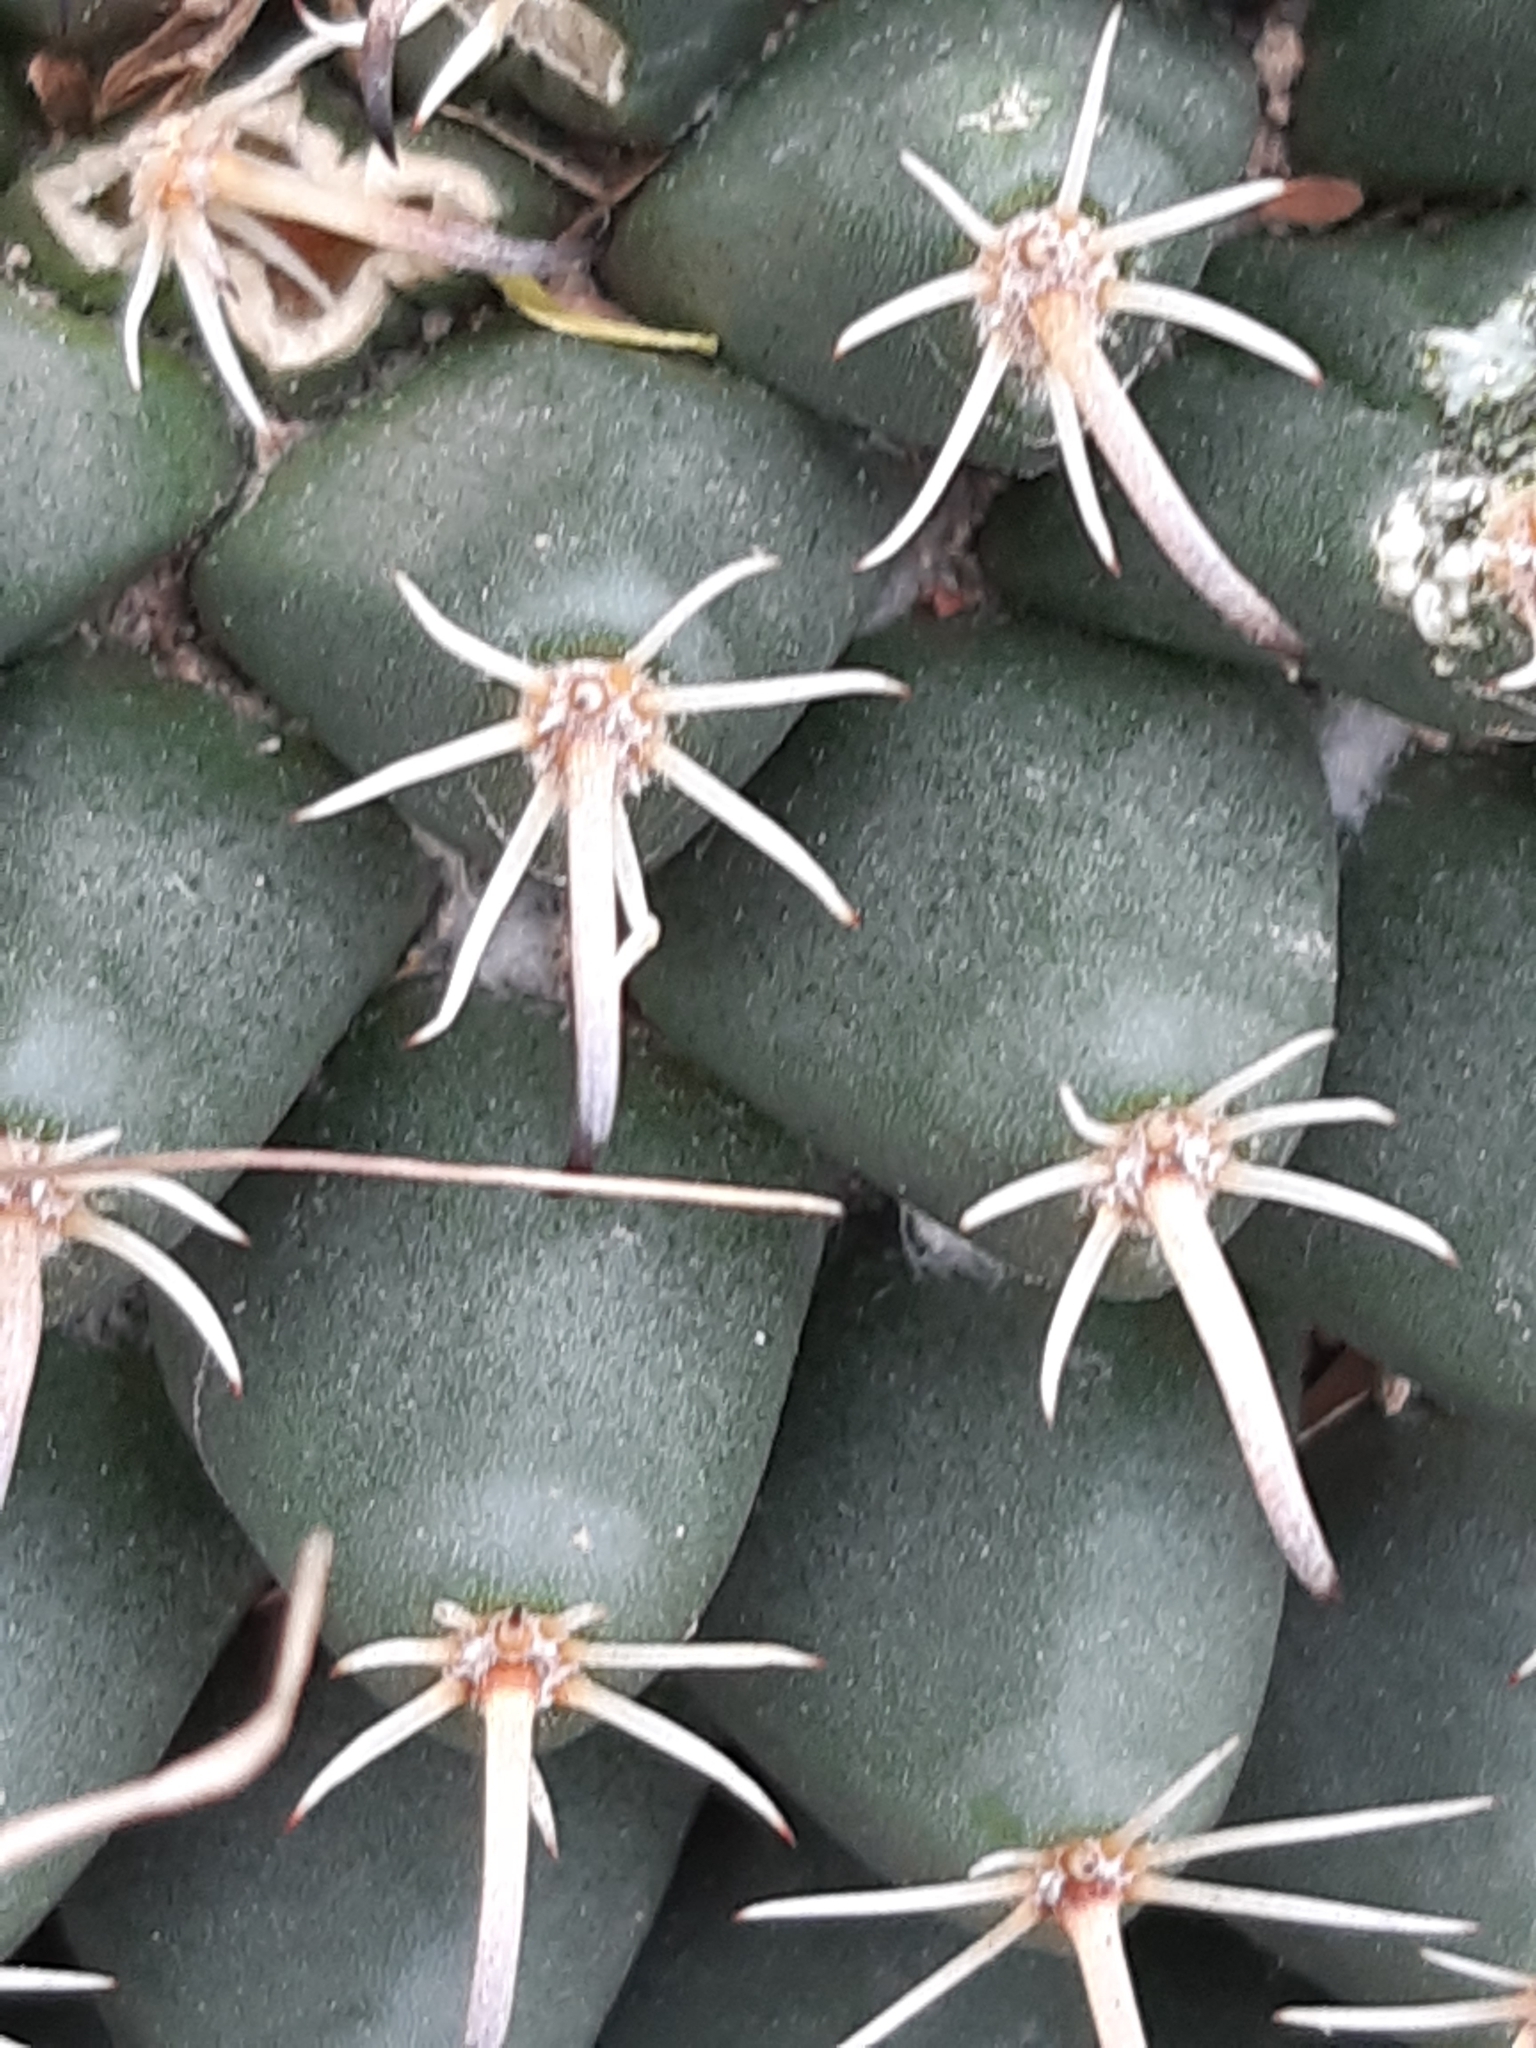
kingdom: Plantae
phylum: Tracheophyta
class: Magnoliopsida
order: Caryophyllales
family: Cactaceae
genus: Mammillaria
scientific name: Mammillaria uncinata
